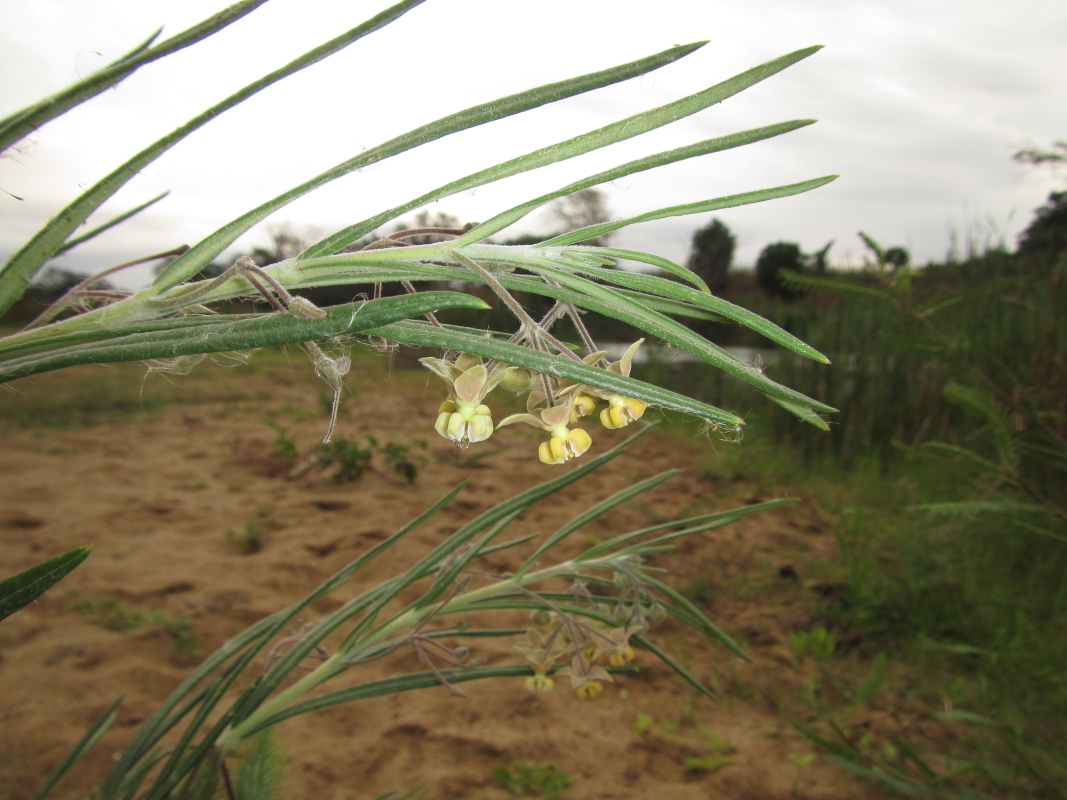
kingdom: Plantae
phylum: Tracheophyta
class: Magnoliopsida
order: Gentianales
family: Apocynaceae
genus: Gomphocarpus
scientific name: Gomphocarpus tomentosus
